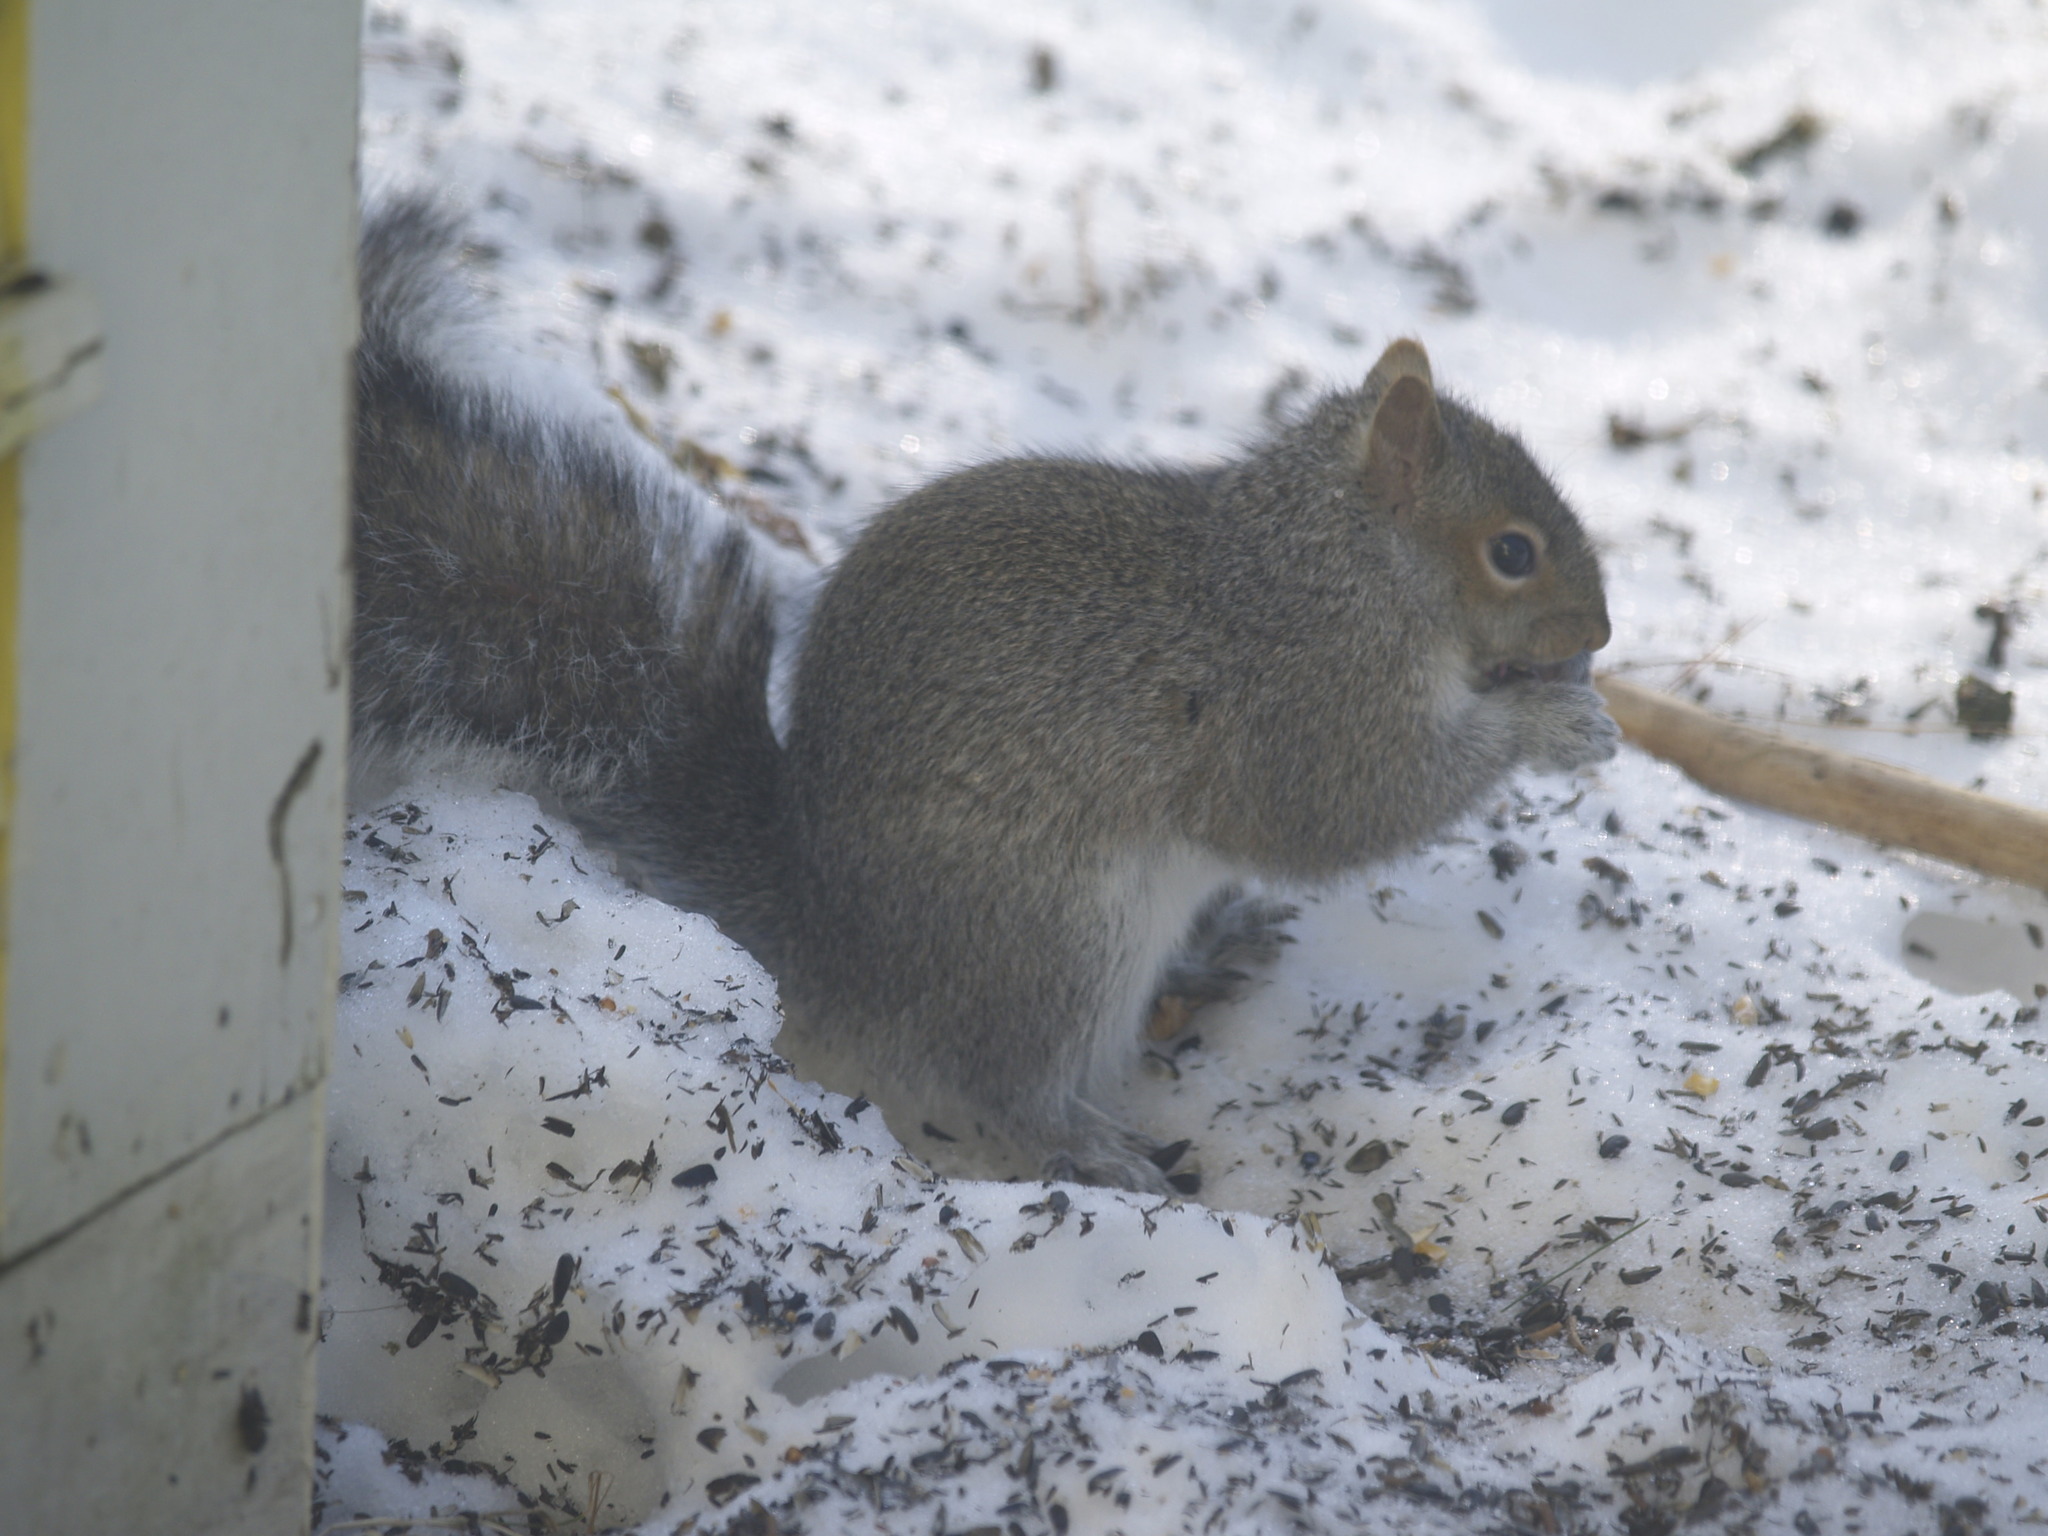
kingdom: Animalia
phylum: Chordata
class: Mammalia
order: Rodentia
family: Sciuridae
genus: Sciurus
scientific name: Sciurus carolinensis
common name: Eastern gray squirrel
